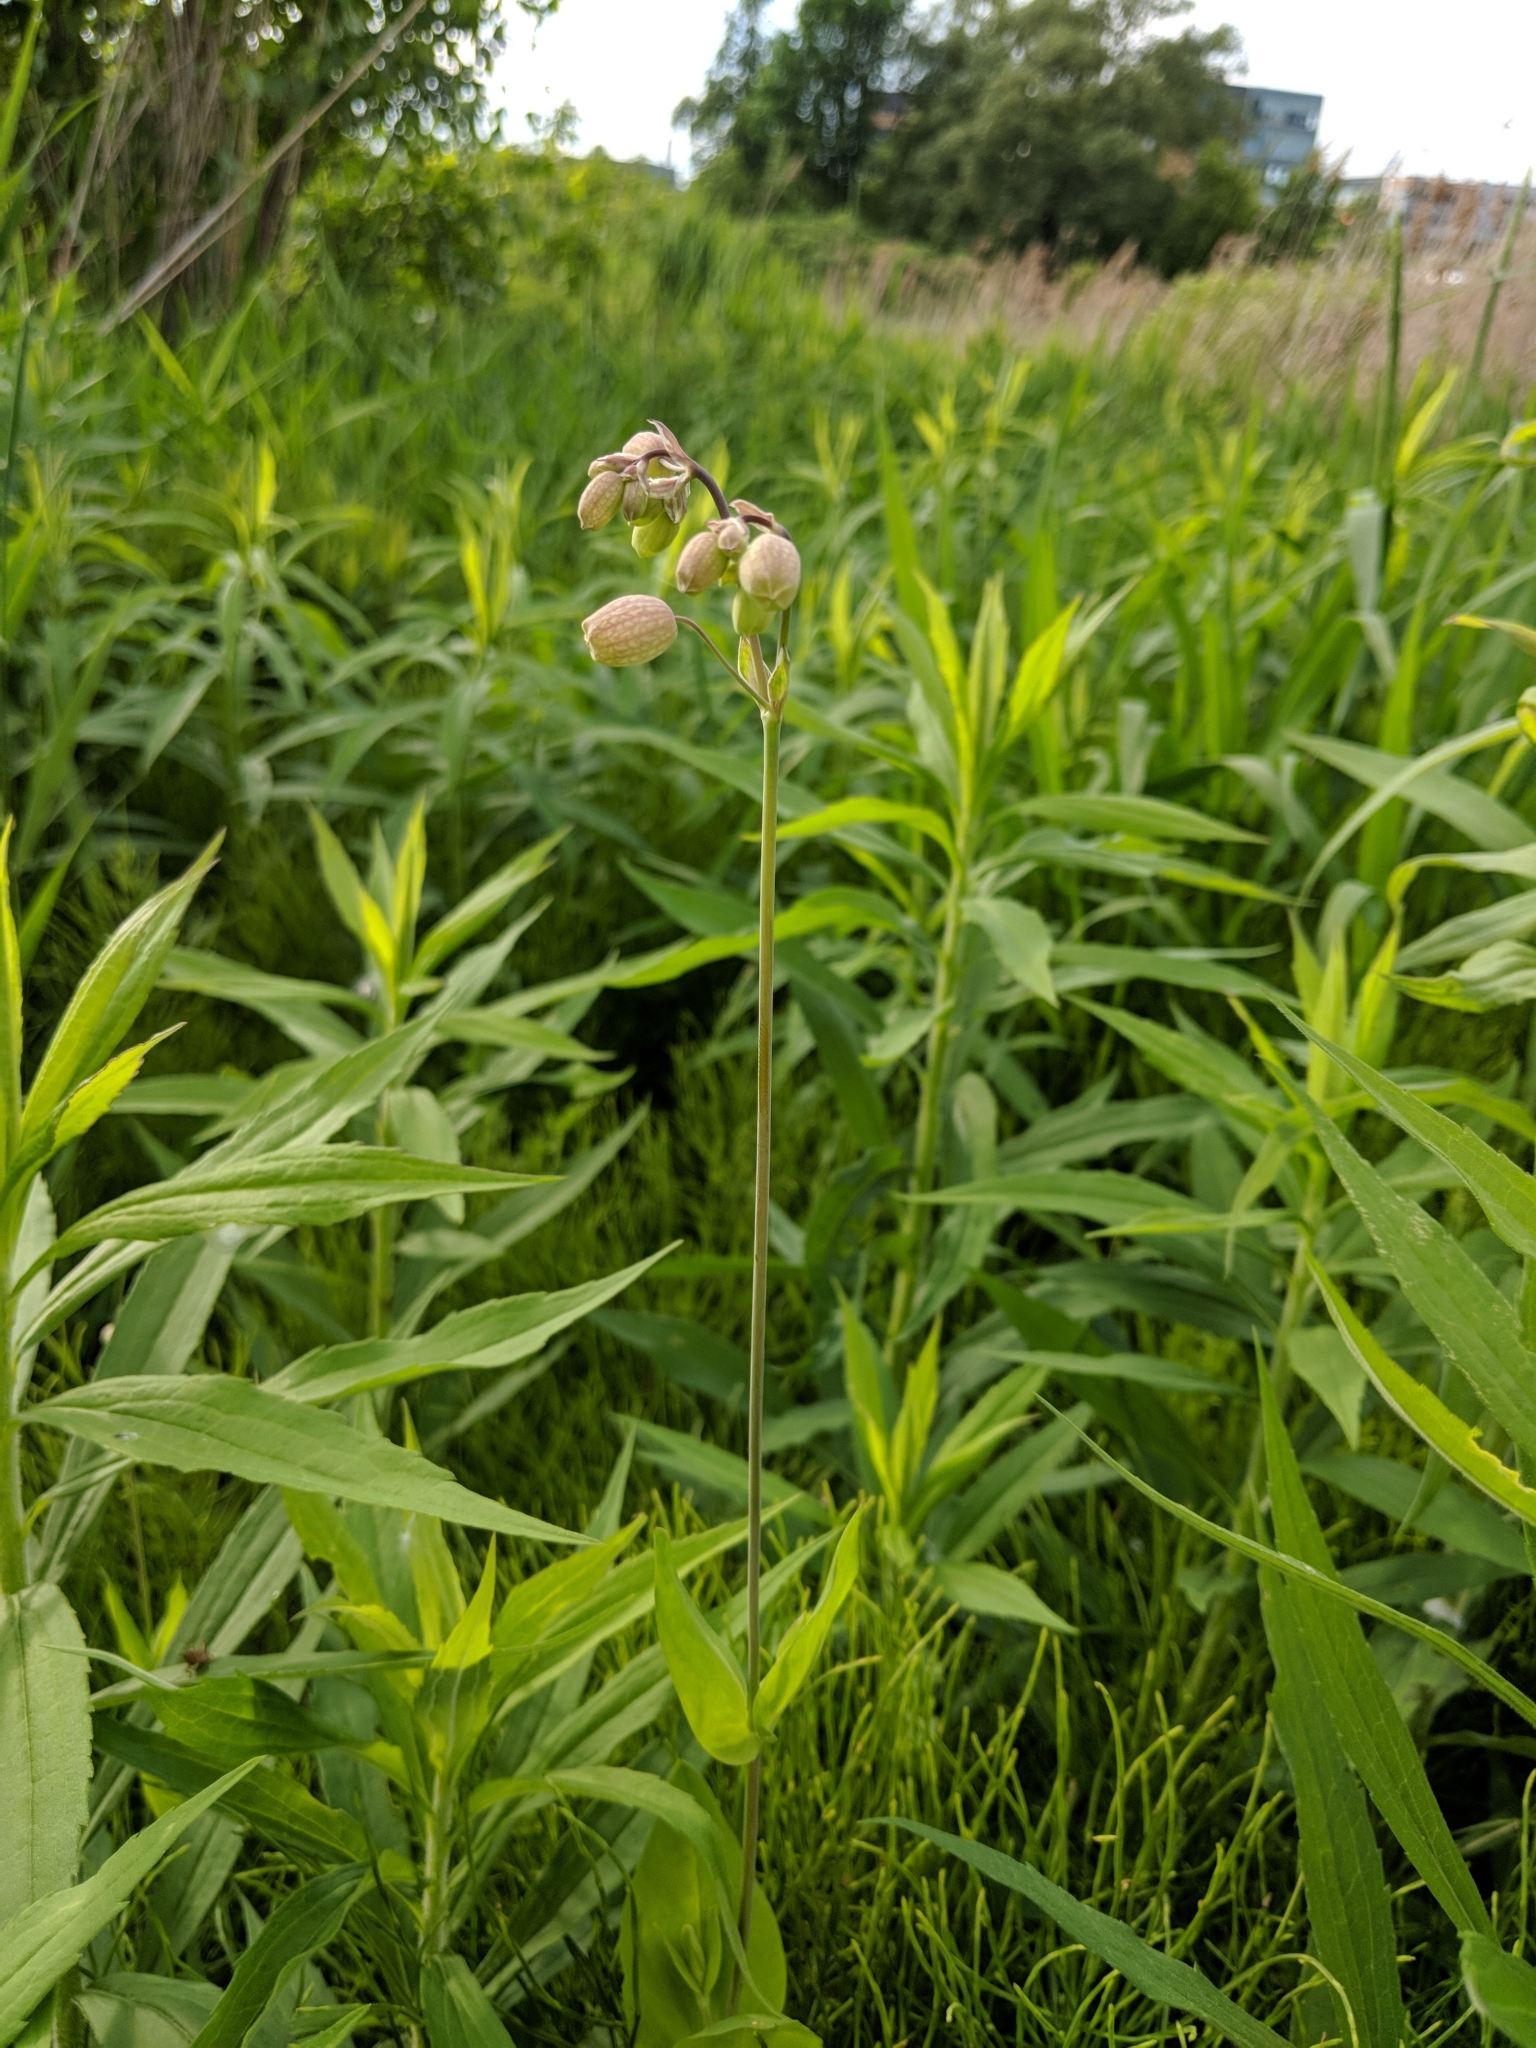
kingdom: Plantae
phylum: Tracheophyta
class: Magnoliopsida
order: Caryophyllales
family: Caryophyllaceae
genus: Silene
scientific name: Silene vulgaris
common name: Bladder campion
